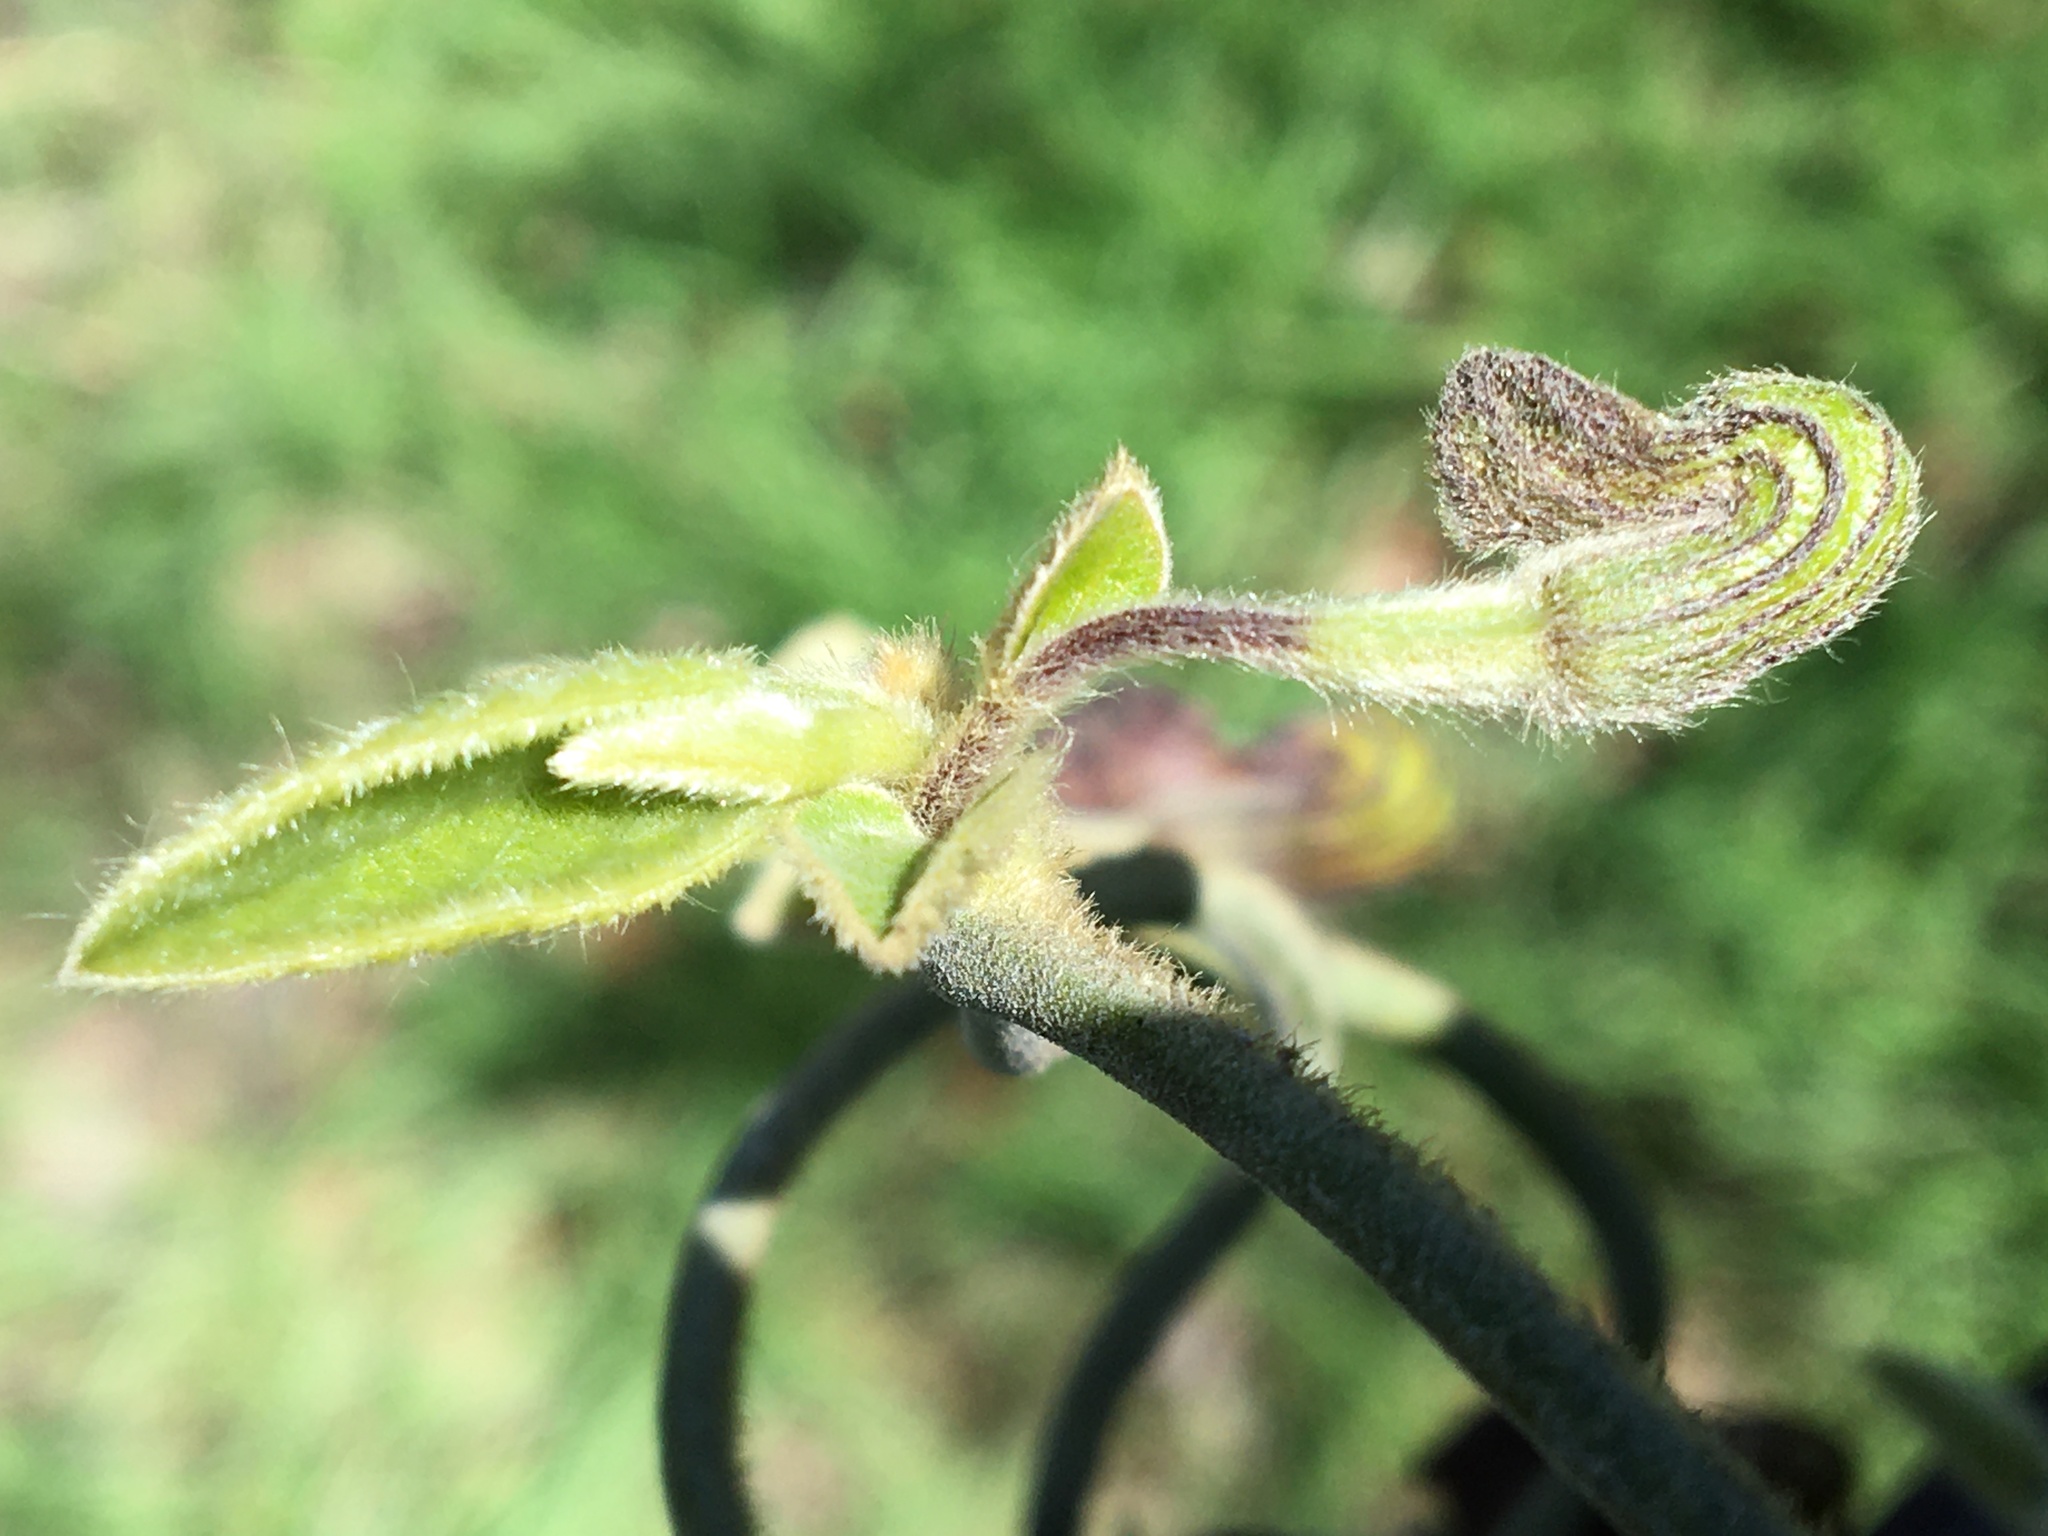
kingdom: Plantae
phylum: Tracheophyta
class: Magnoliopsida
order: Piperales
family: Aristolochiaceae
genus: Isotrema
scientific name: Isotrema californicum
